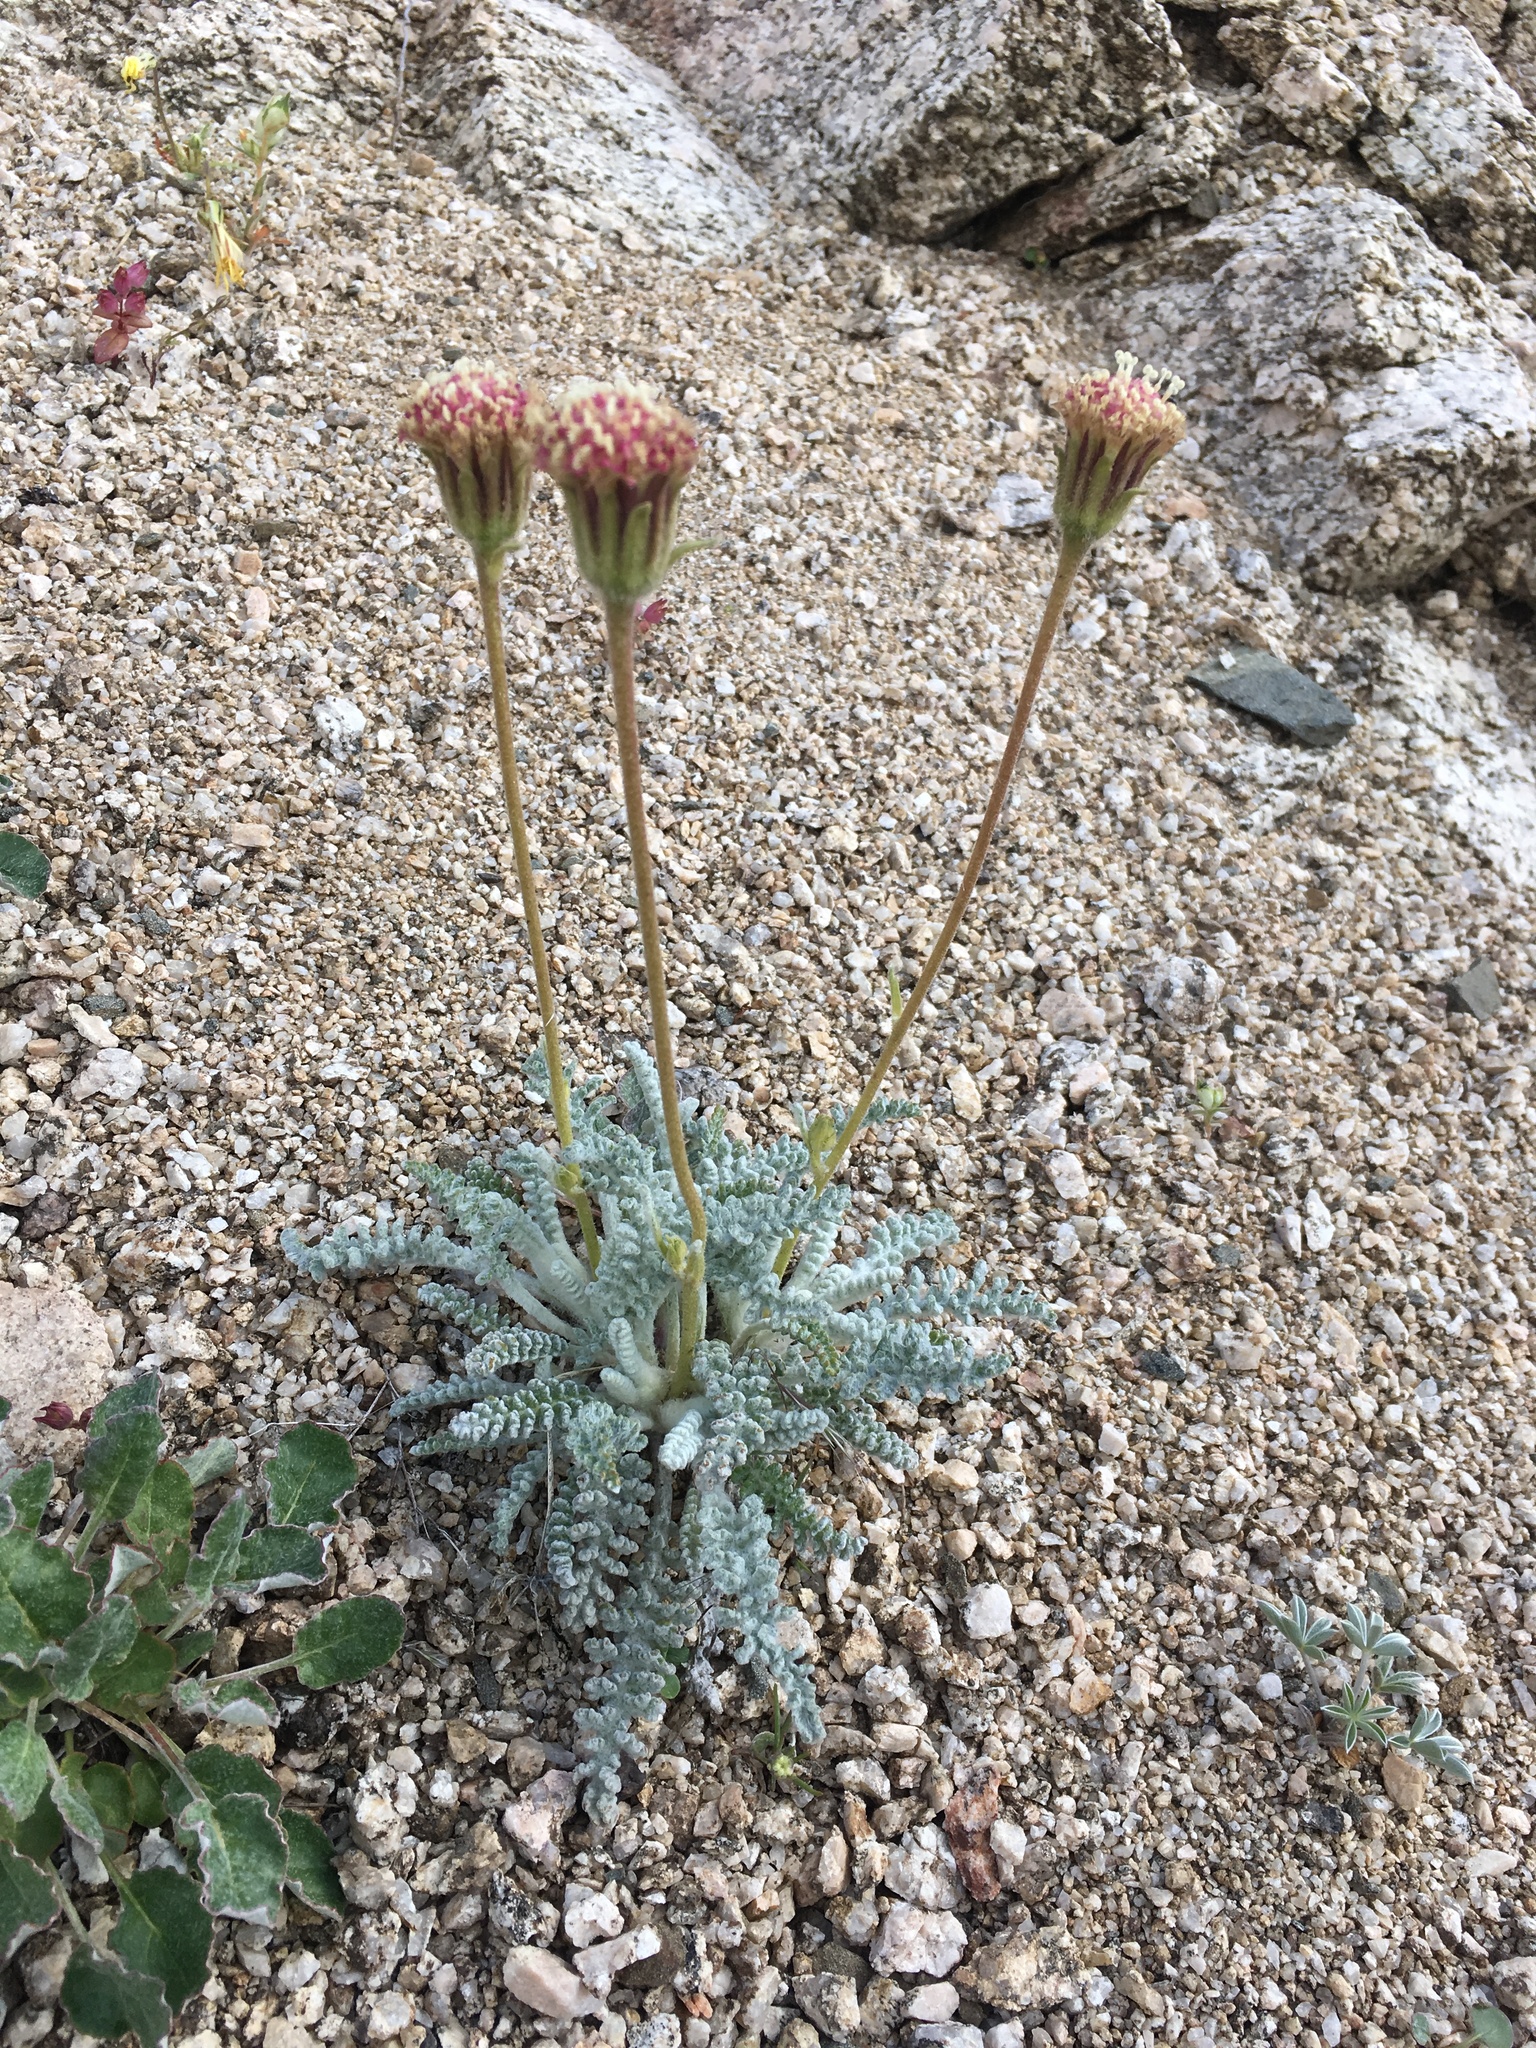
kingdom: Plantae
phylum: Tracheophyta
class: Magnoliopsida
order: Asterales
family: Asteraceae
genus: Chaenactis
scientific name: Chaenactis santolinoides
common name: Santolina pincushion
